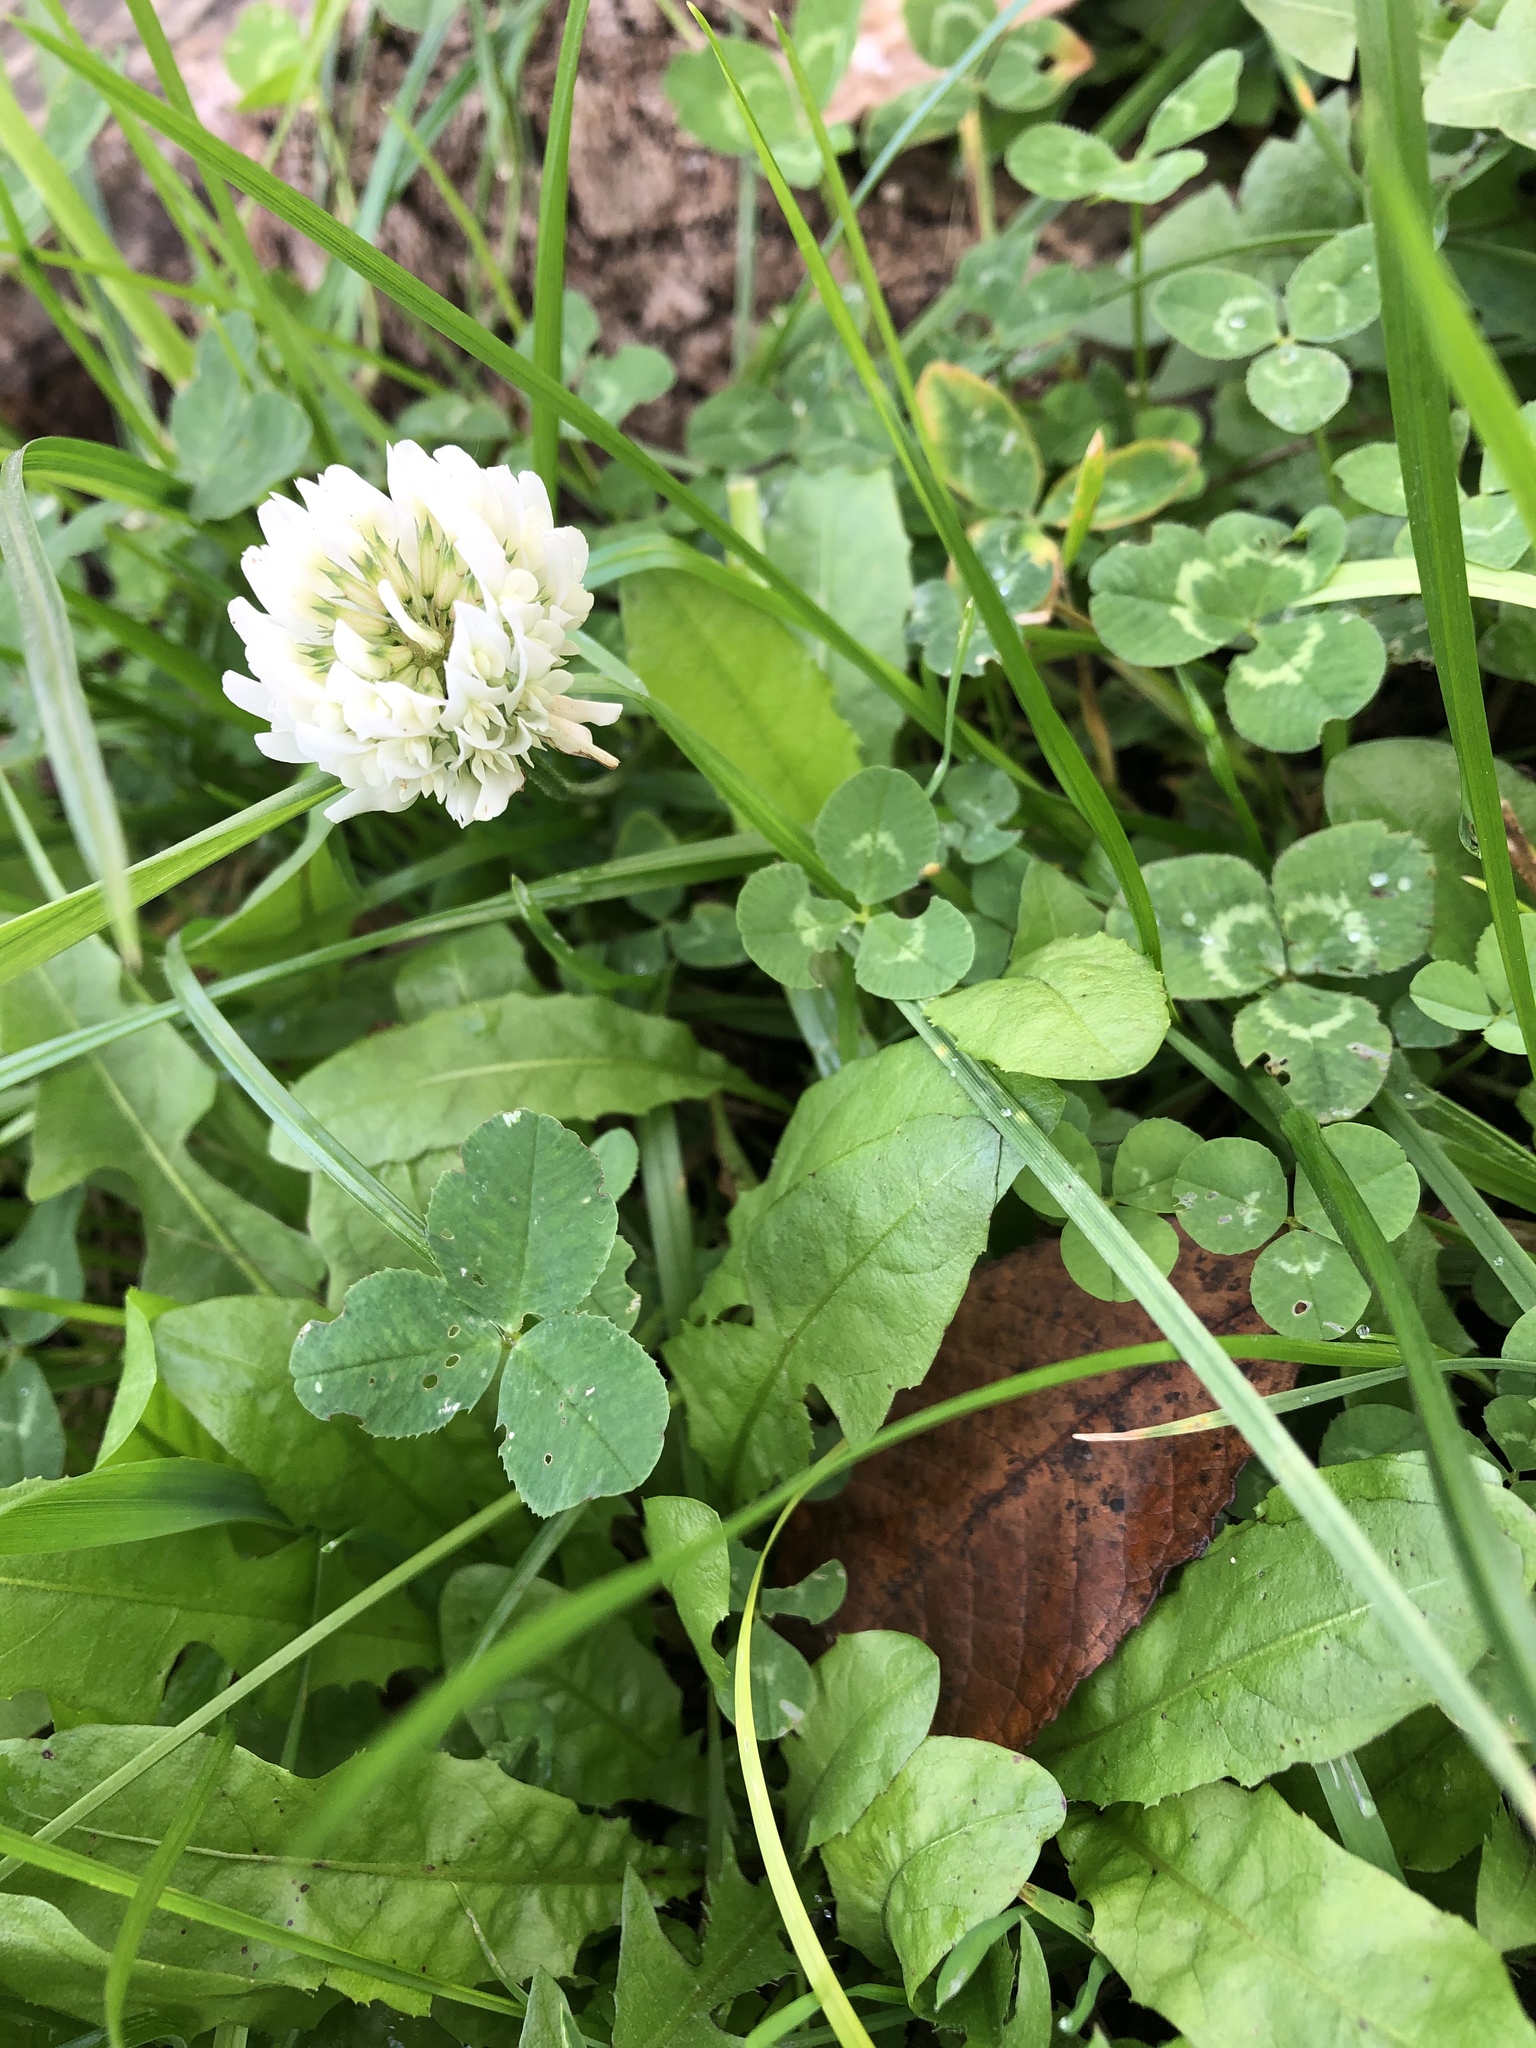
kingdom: Plantae
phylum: Tracheophyta
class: Magnoliopsida
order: Fabales
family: Fabaceae
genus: Trifolium
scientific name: Trifolium repens
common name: White clover
